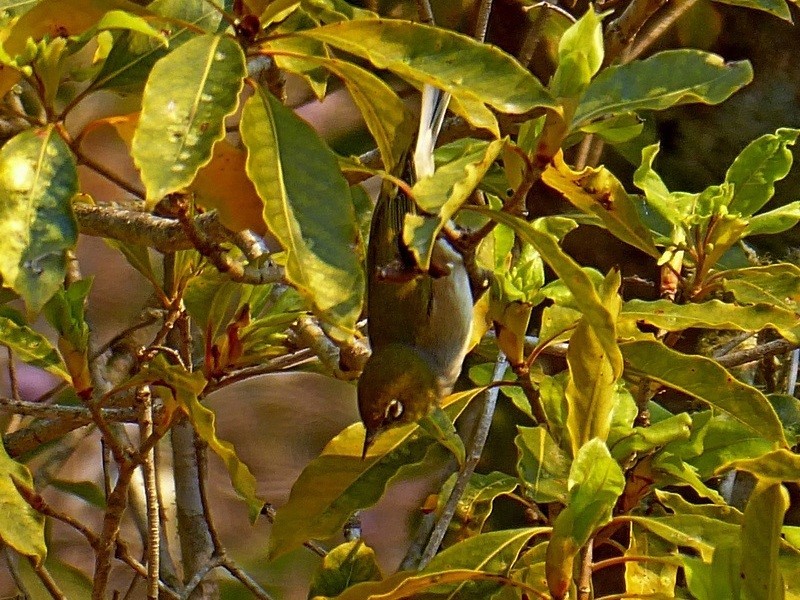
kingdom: Animalia
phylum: Chordata
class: Aves
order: Passeriformes
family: Zosteropidae
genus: Zosterops
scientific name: Zosterops lateralis
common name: Silvereye
